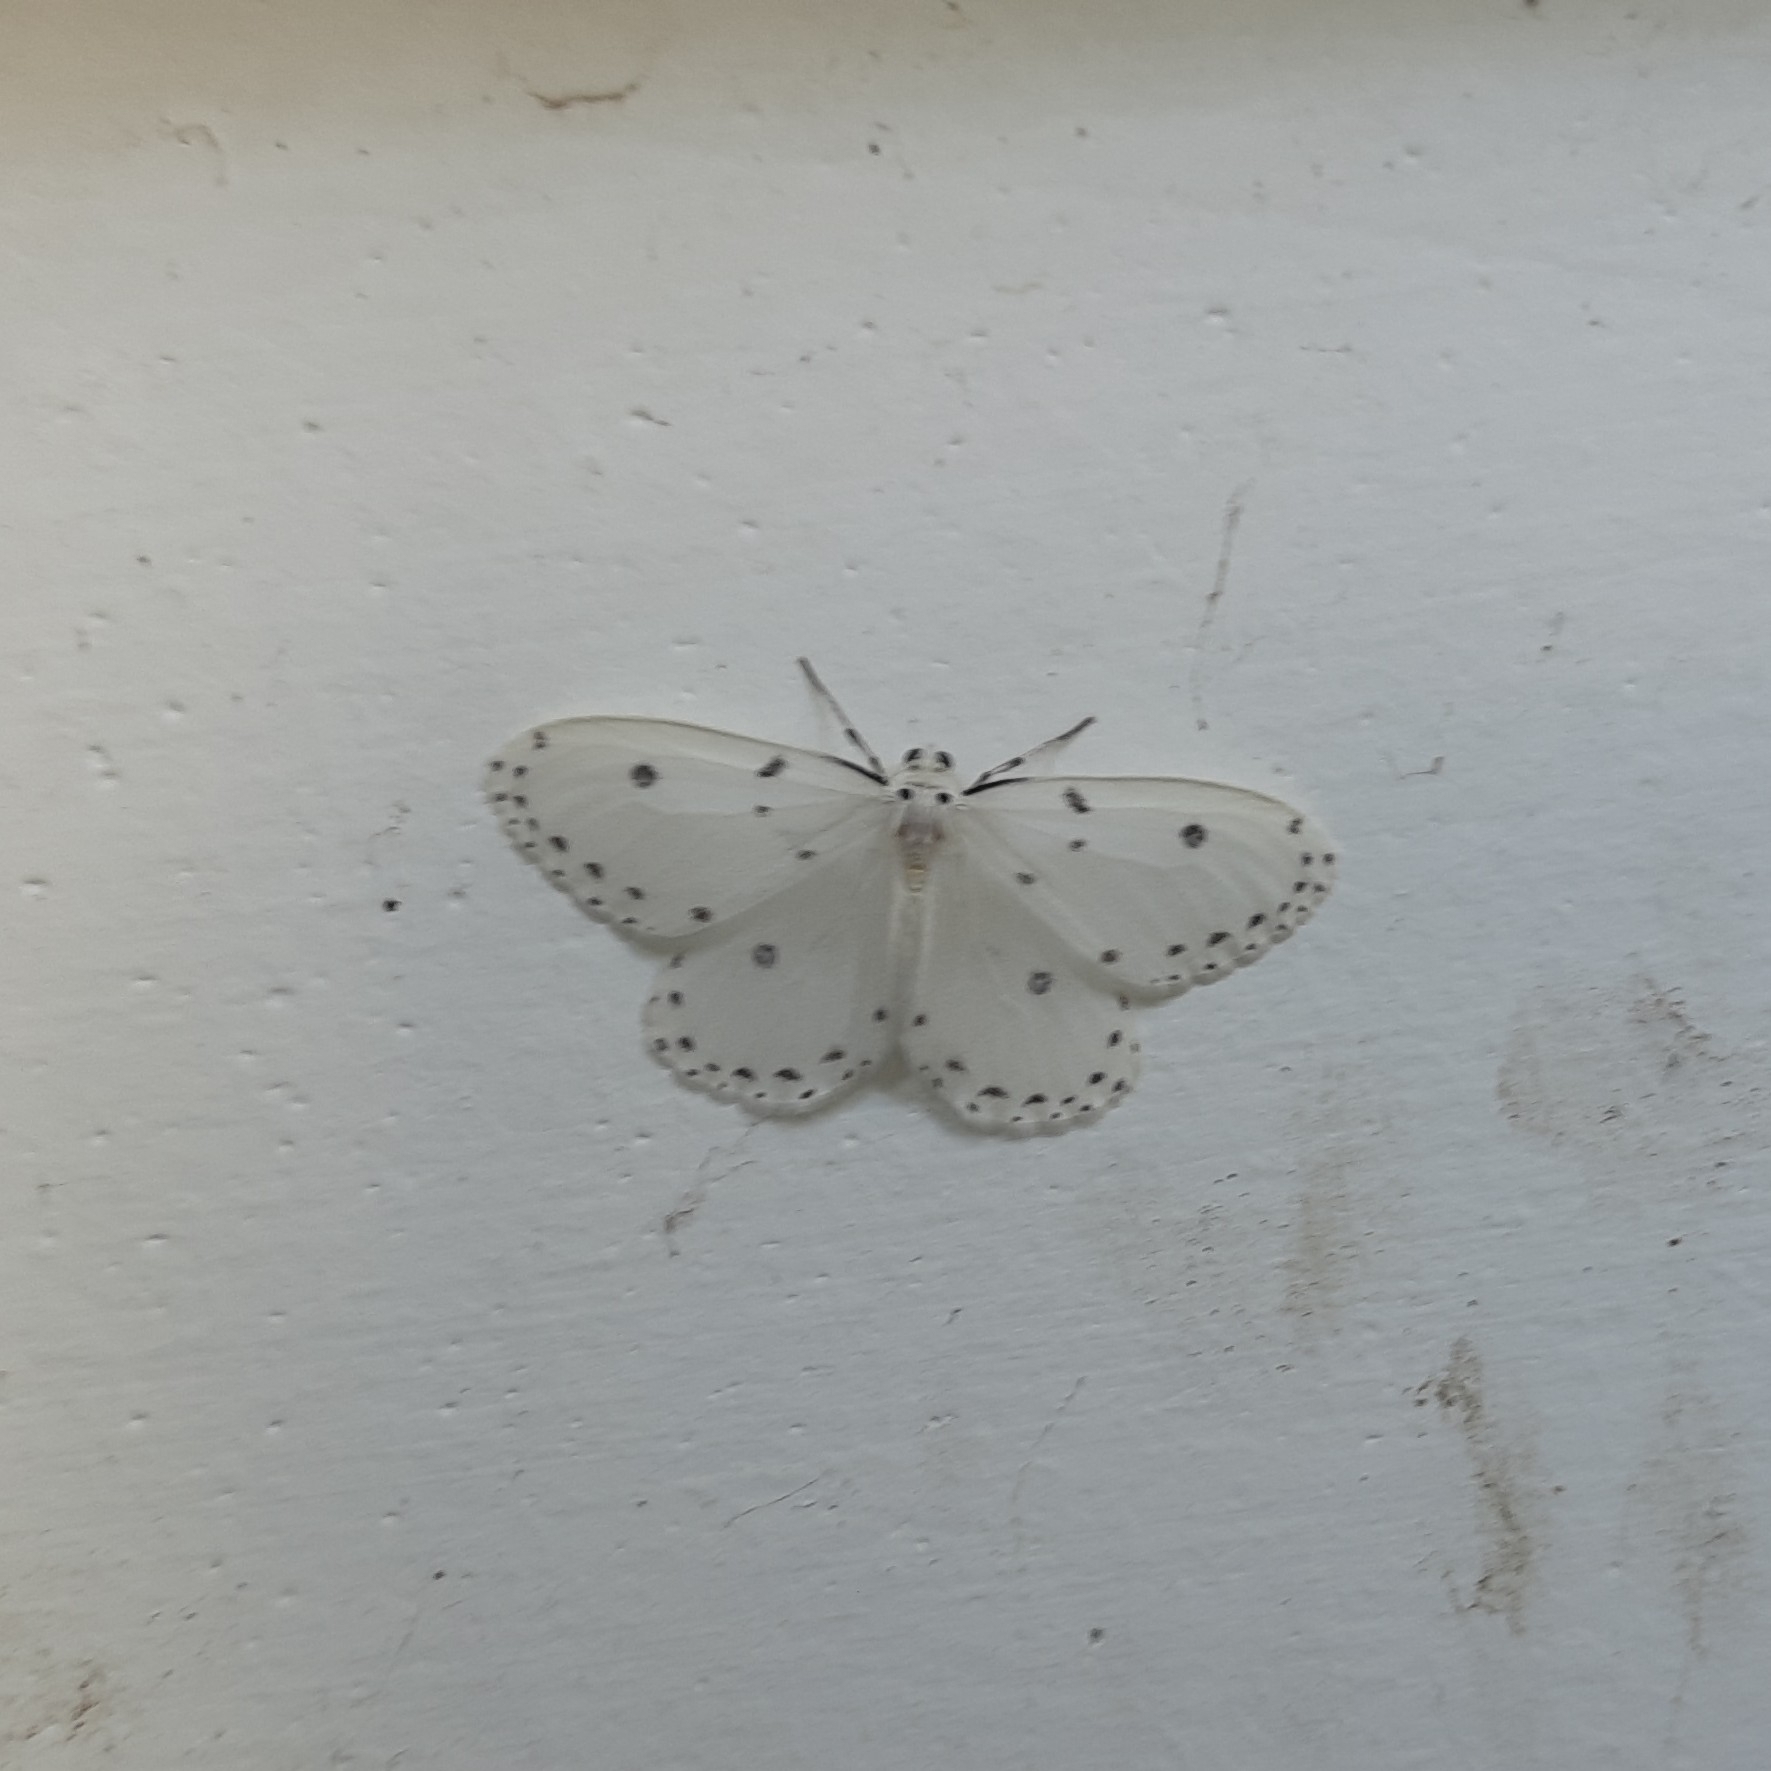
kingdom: Animalia
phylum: Arthropoda
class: Insecta
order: Lepidoptera
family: Geometridae
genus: Naxa
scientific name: Naxa textilis
